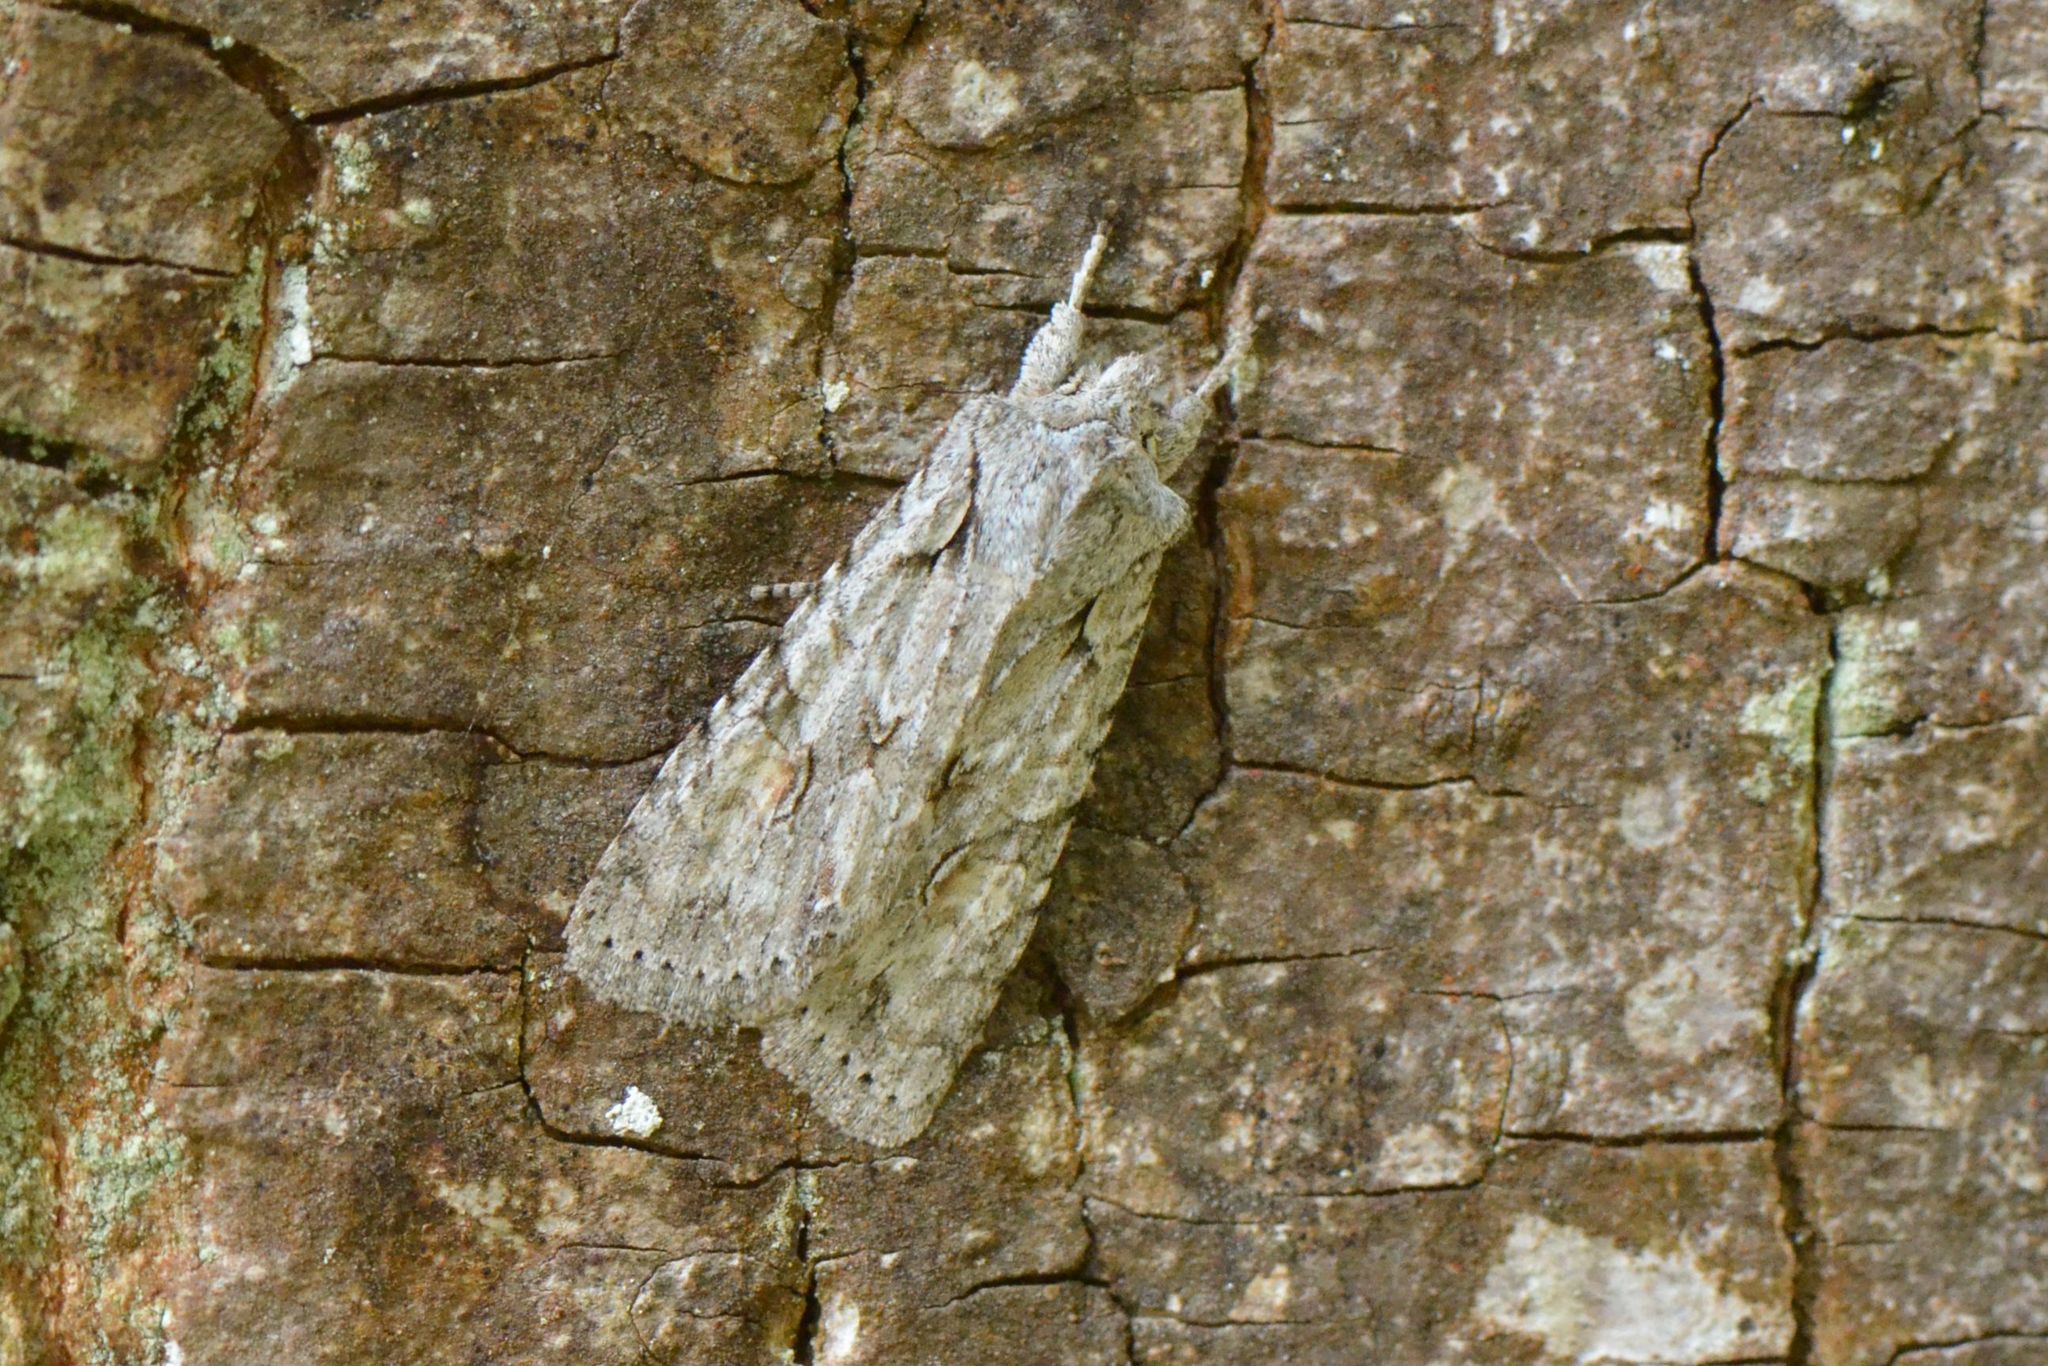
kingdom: Animalia
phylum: Arthropoda
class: Insecta
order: Lepidoptera
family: Noctuidae
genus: Lithophane
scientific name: Lithophane ornitopus
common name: Grey shoulder-knot
